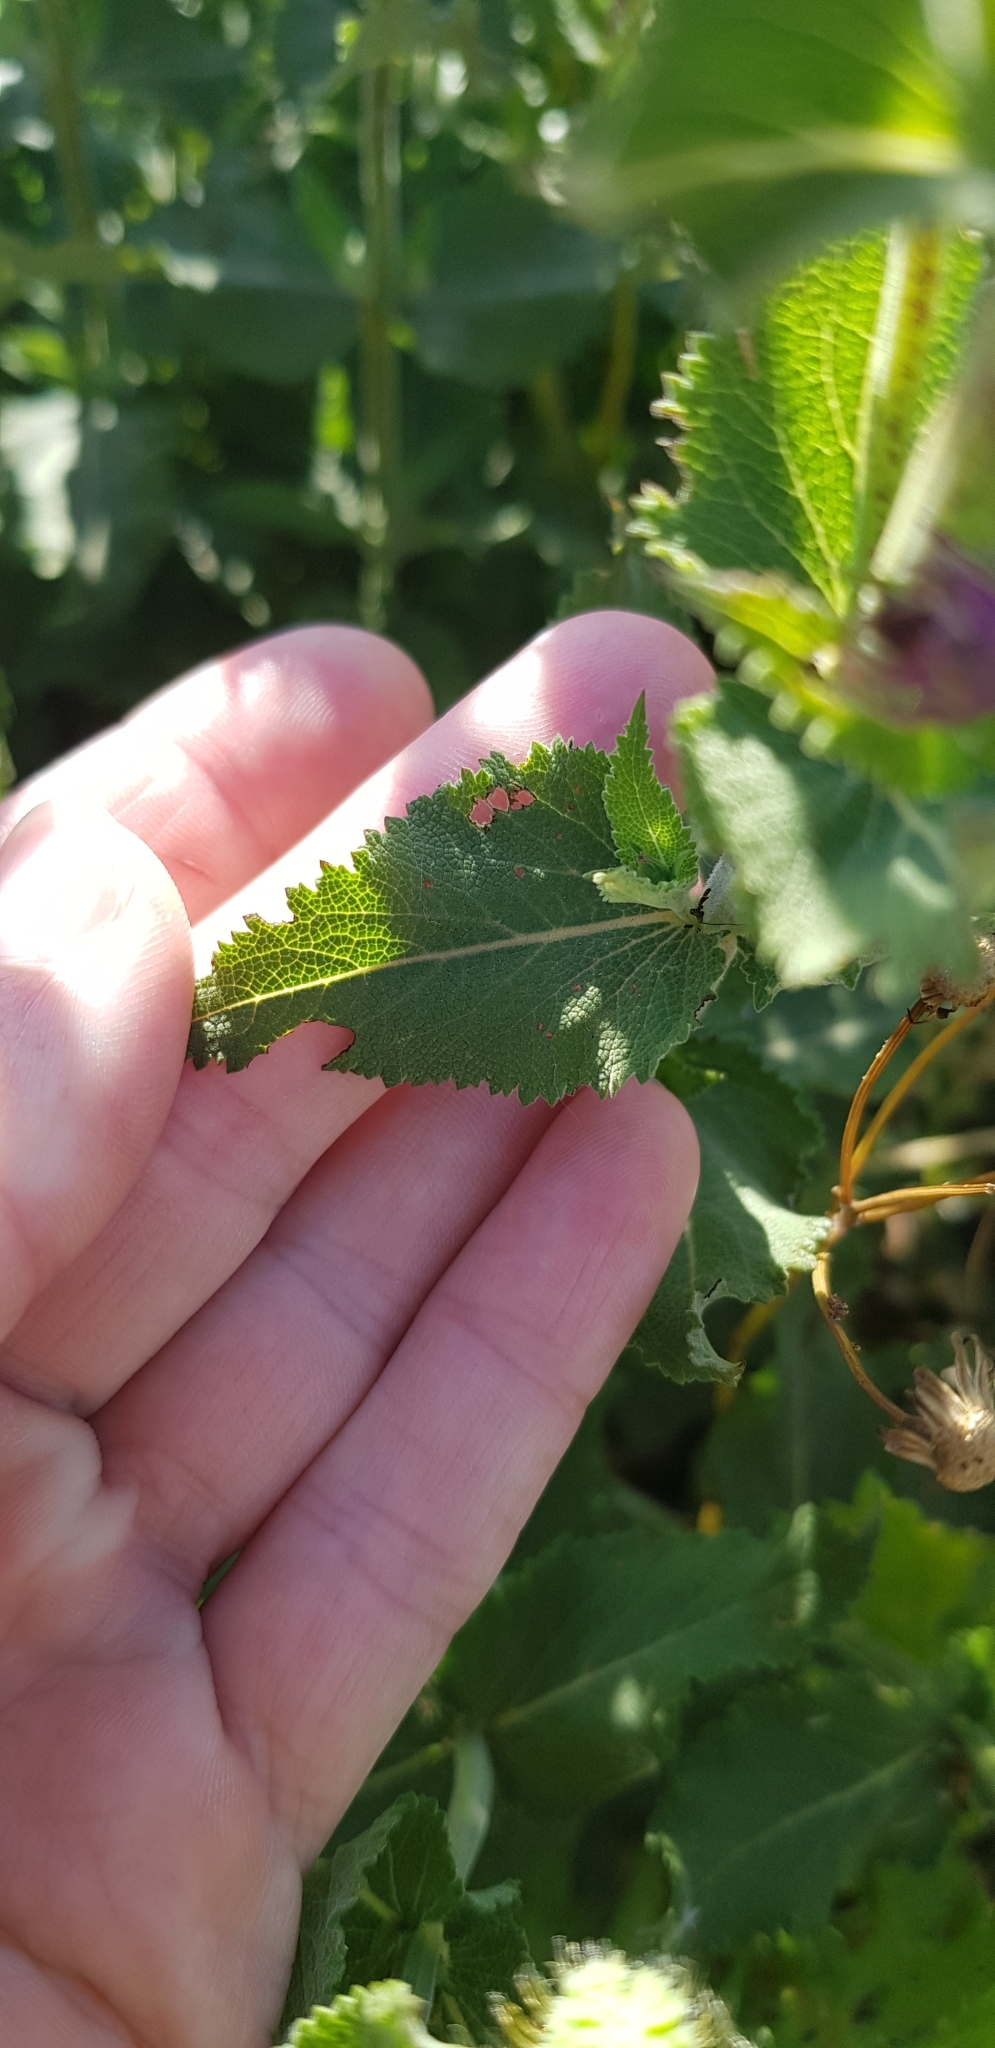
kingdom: Plantae
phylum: Tracheophyta
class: Magnoliopsida
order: Lamiales
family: Lamiaceae
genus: Salvia
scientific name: Salvia nemorosa
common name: Balkan clary
